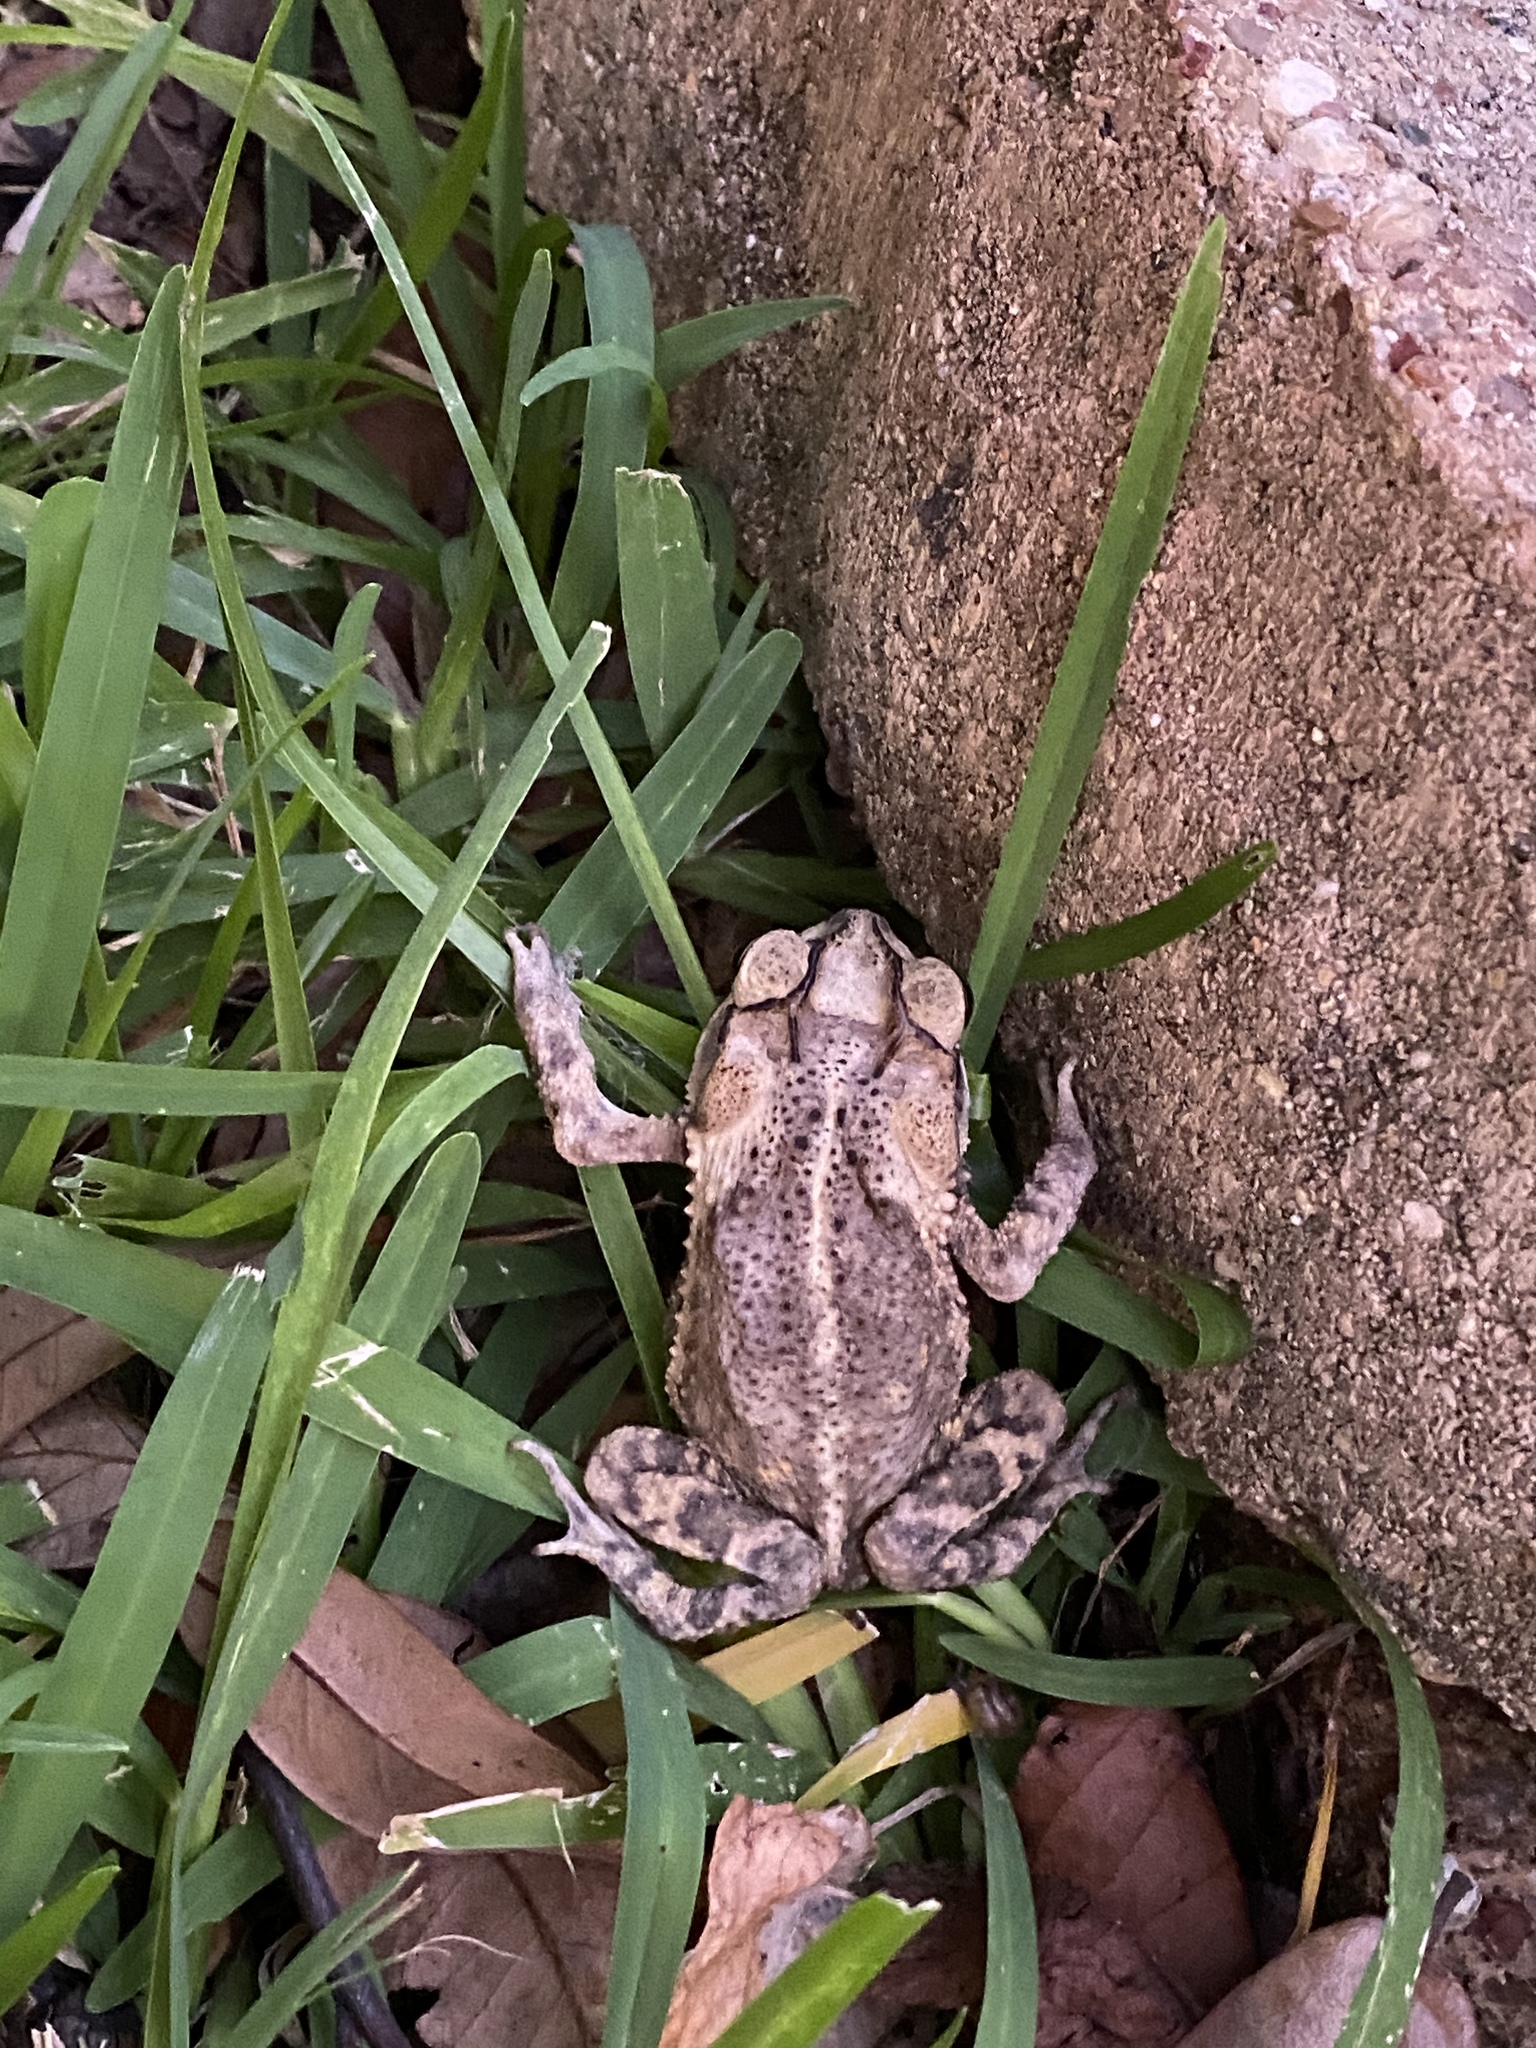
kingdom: Animalia
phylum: Chordata
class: Amphibia
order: Anura
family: Bufonidae
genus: Incilius
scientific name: Incilius nebulifer
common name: Gulf coast toad
